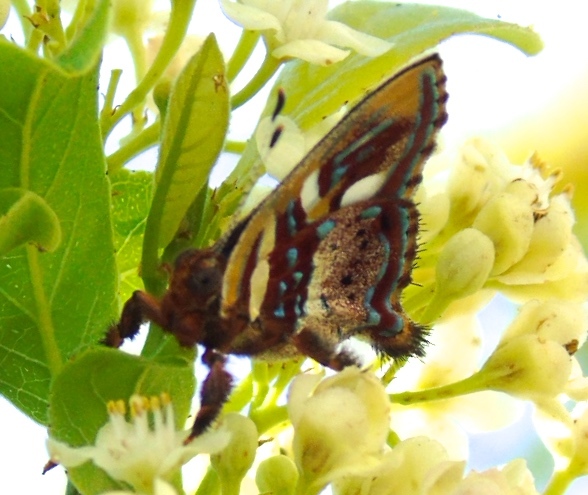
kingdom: Animalia
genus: Anteros
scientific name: Anteros carausius
